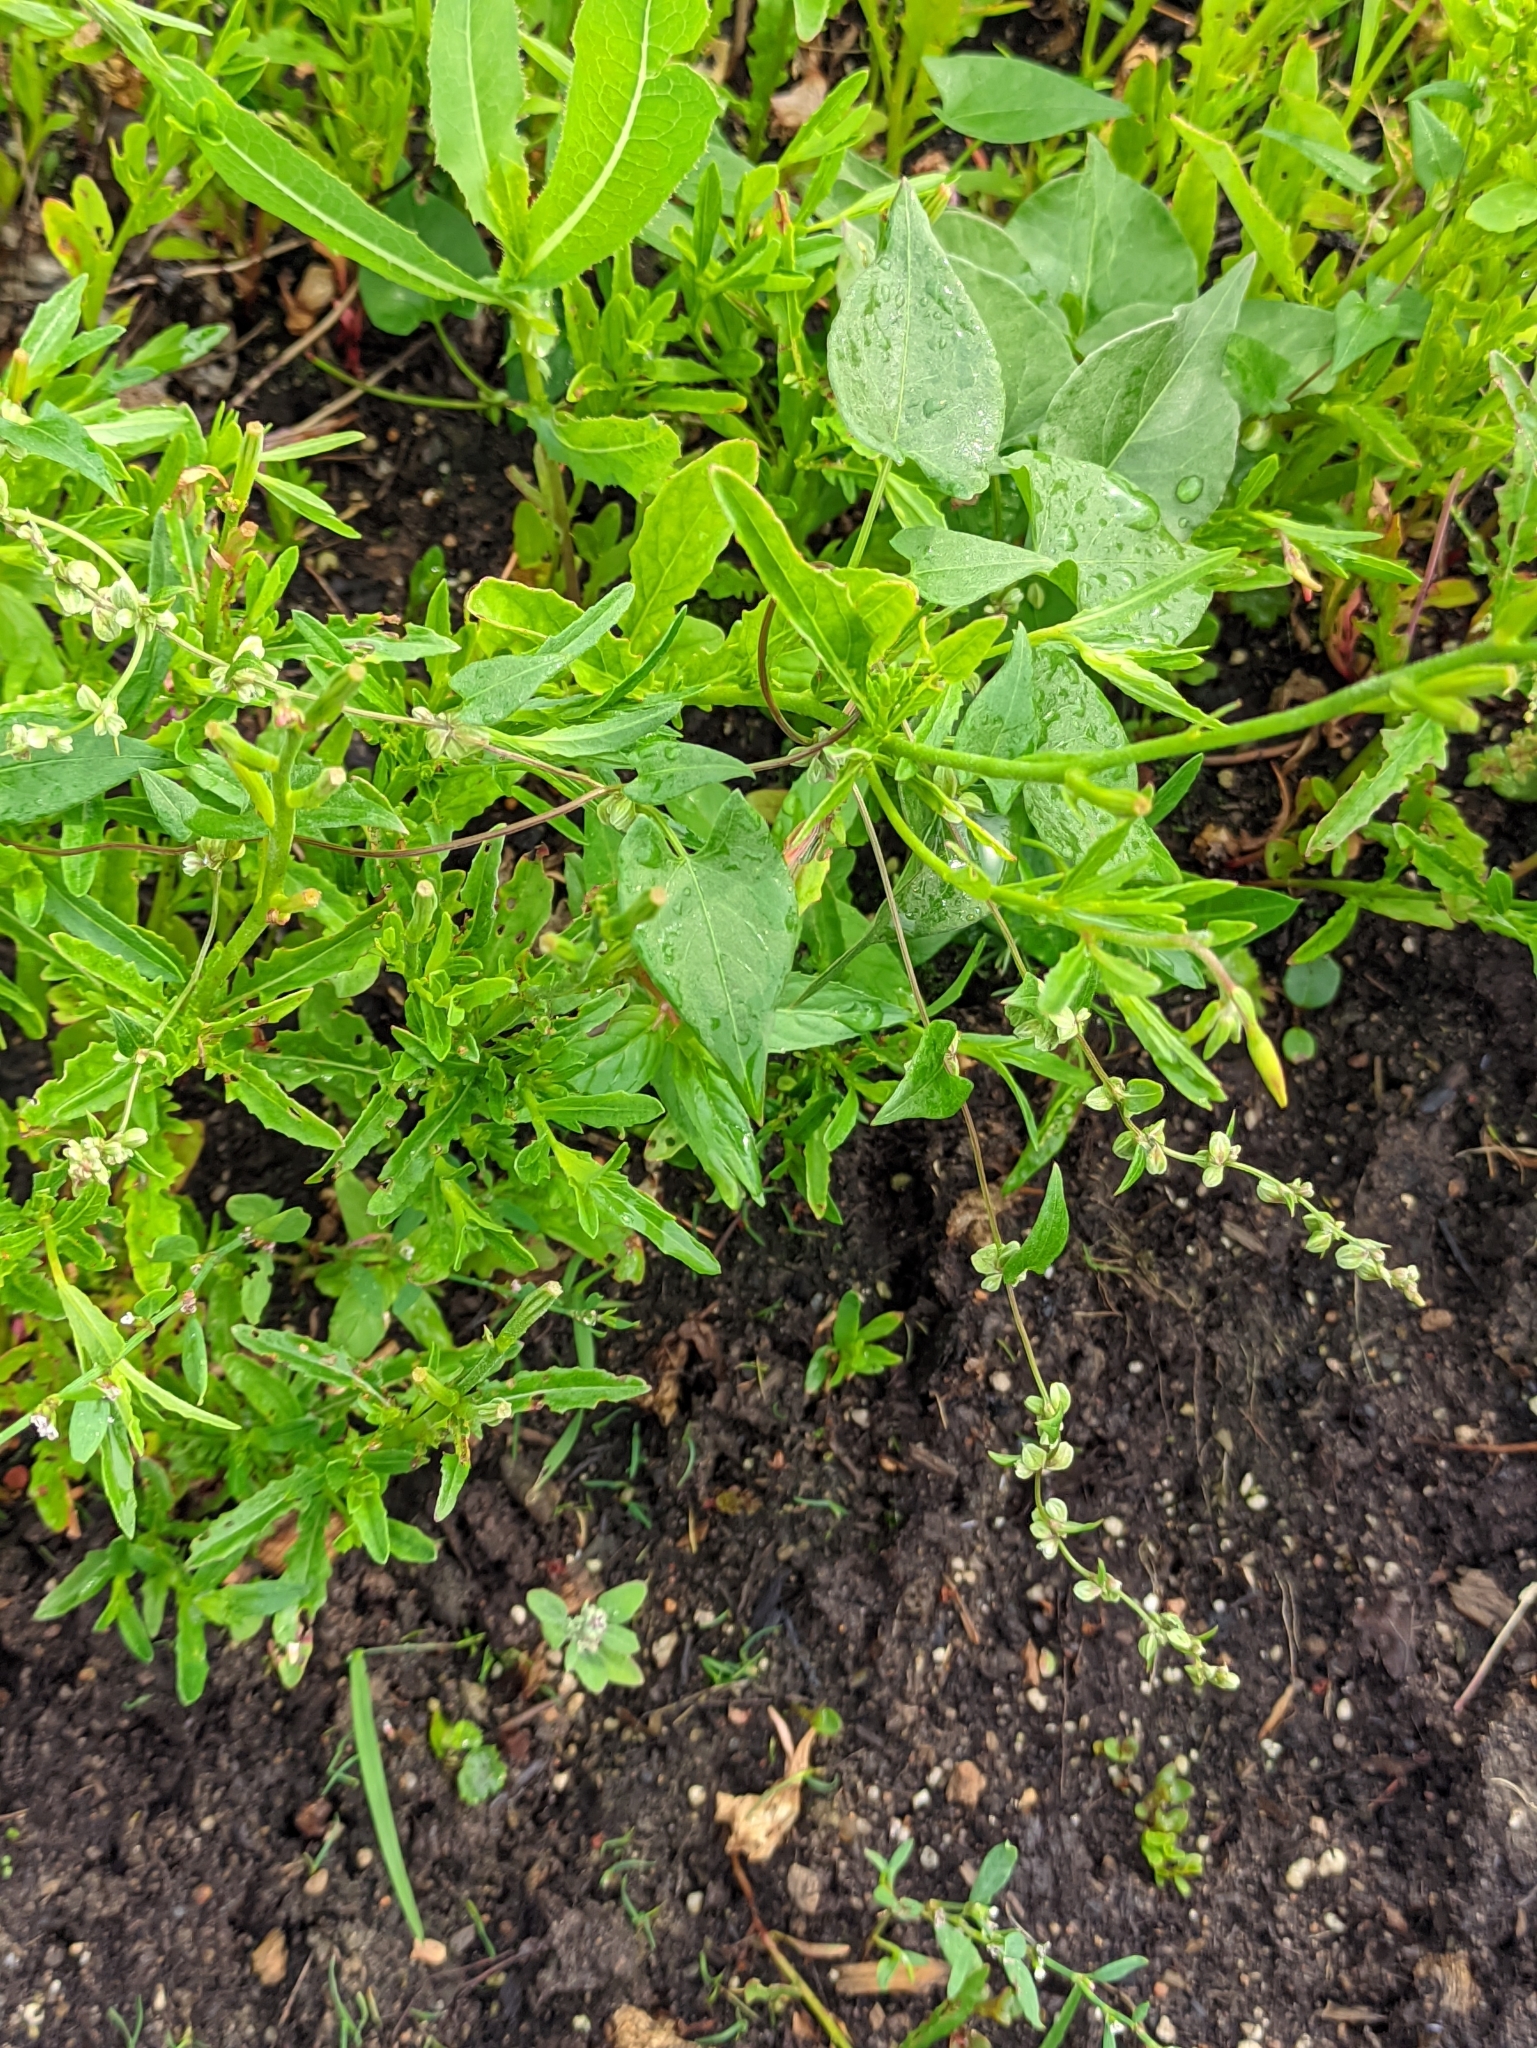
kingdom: Plantae
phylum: Tracheophyta
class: Magnoliopsida
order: Caryophyllales
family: Polygonaceae
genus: Fallopia
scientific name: Fallopia convolvulus
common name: Black bindweed
